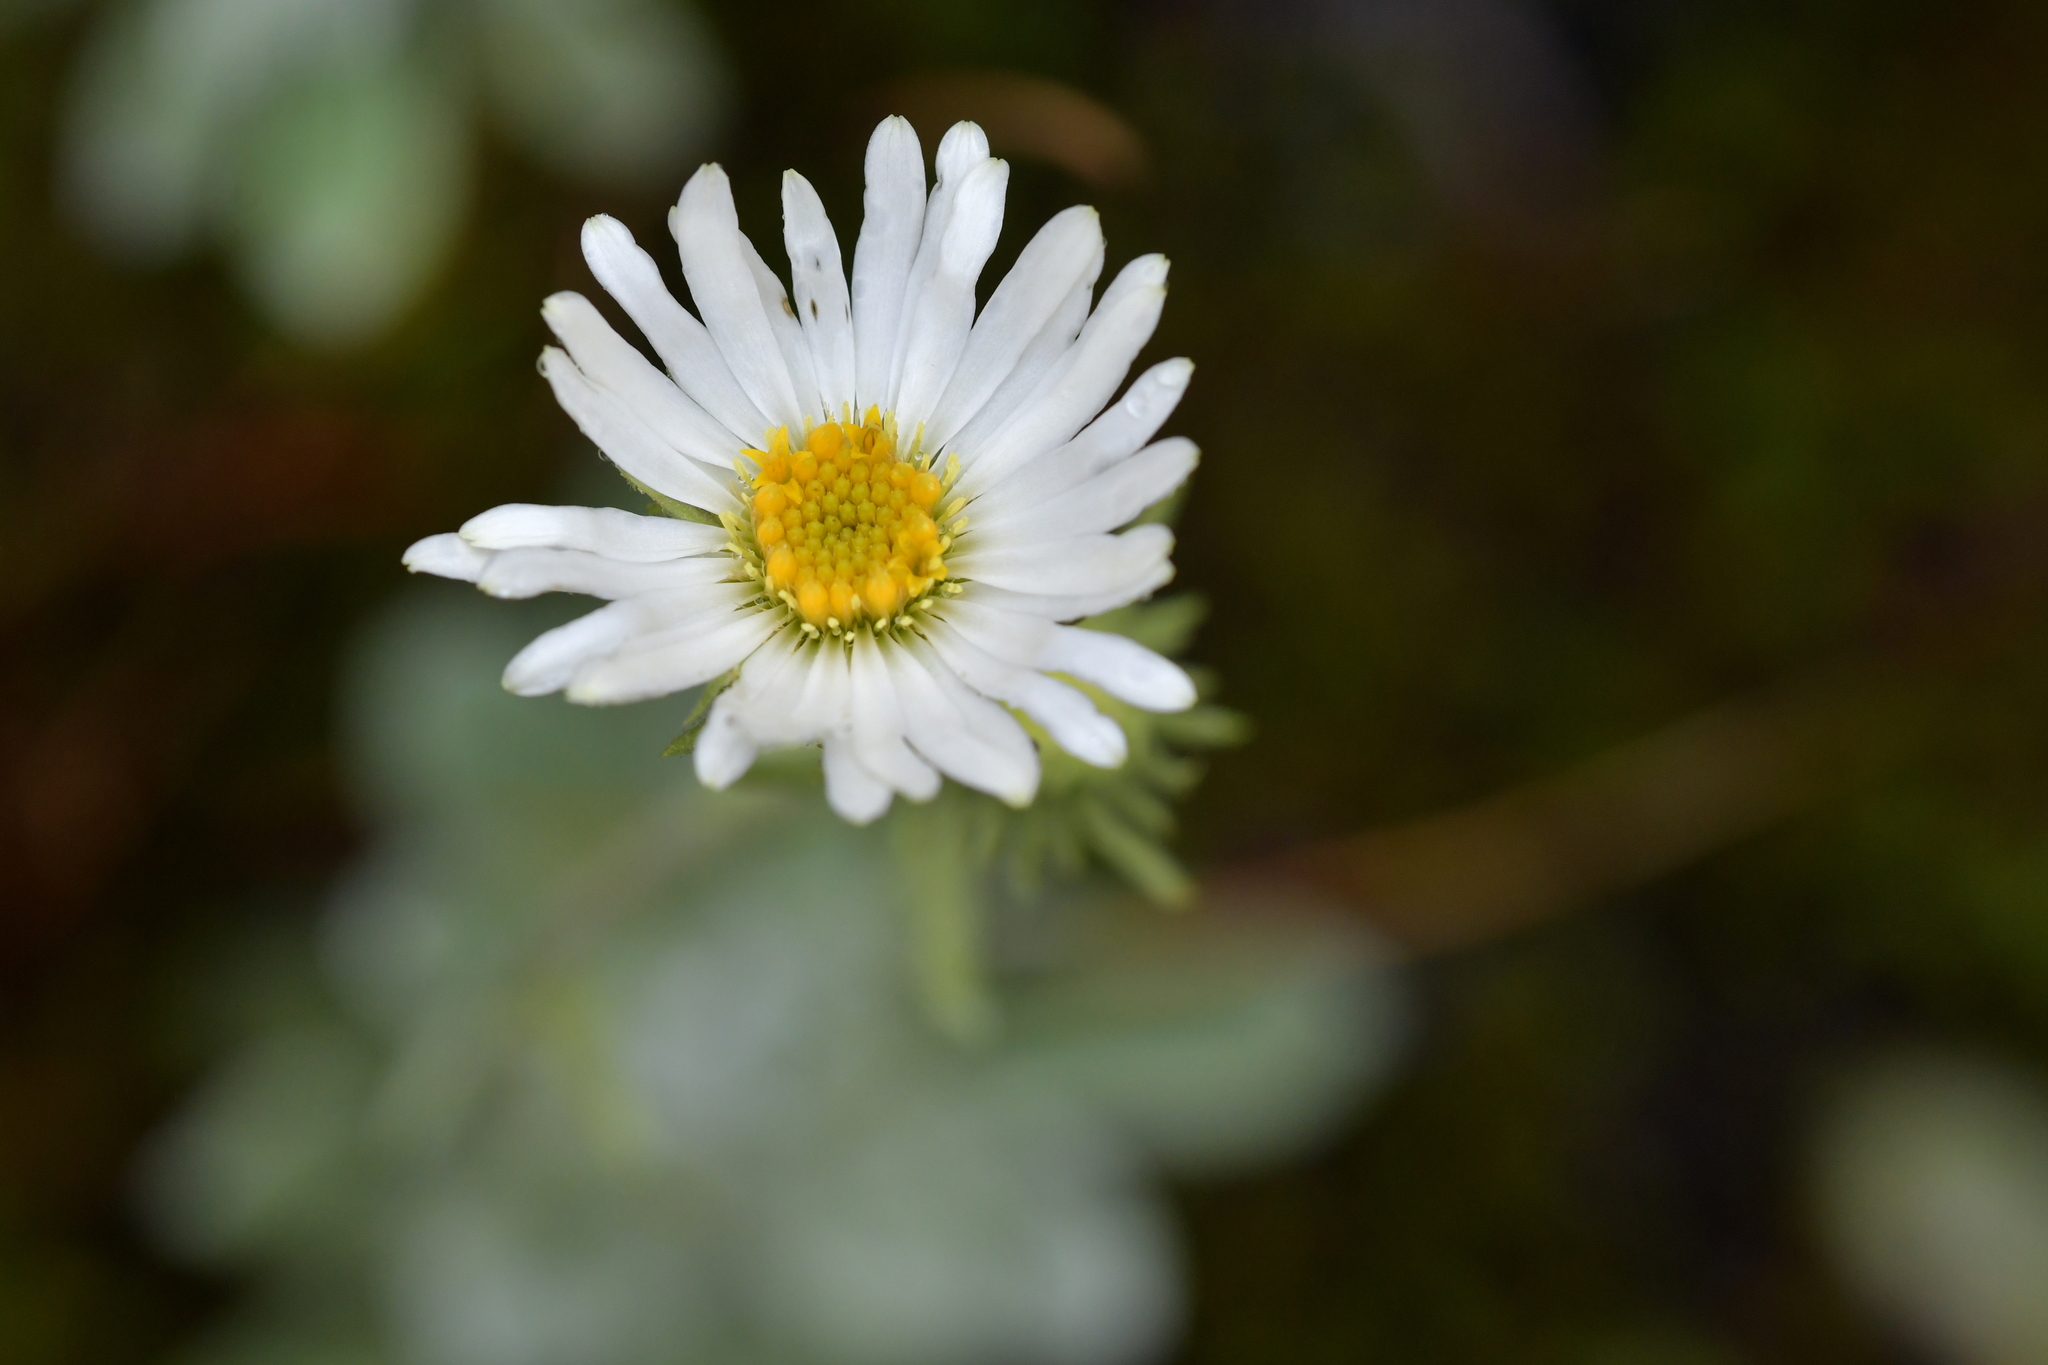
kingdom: Plantae
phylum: Tracheophyta
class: Magnoliopsida
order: Asterales
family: Asteraceae
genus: Celmisia
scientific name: Celmisia incana
